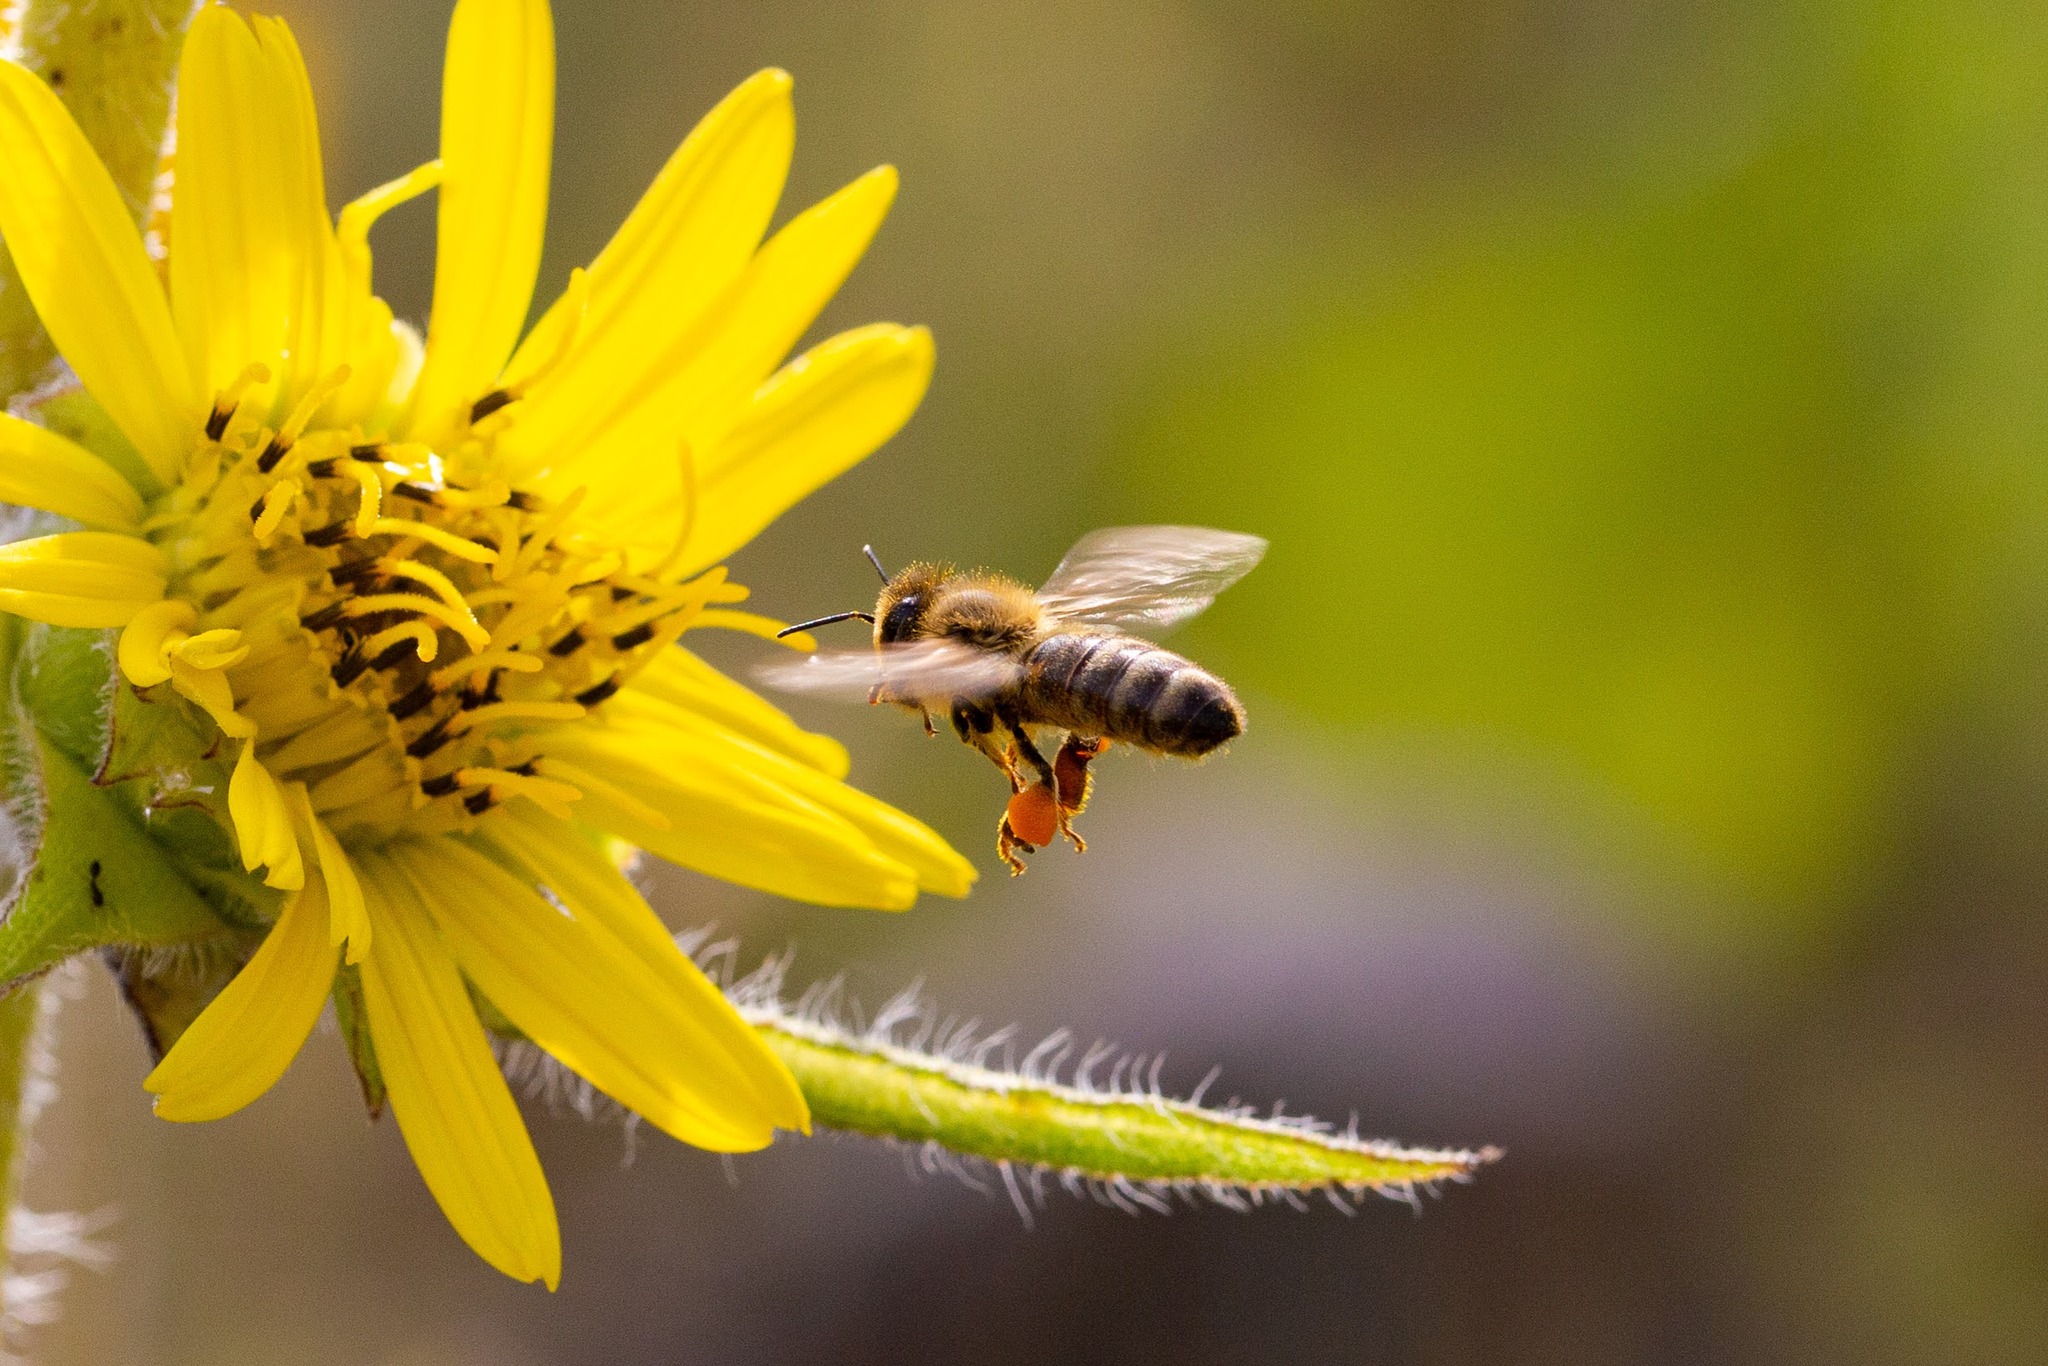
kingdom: Animalia
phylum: Arthropoda
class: Insecta
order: Hymenoptera
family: Apidae
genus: Apis
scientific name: Apis mellifera
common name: Honey bee
